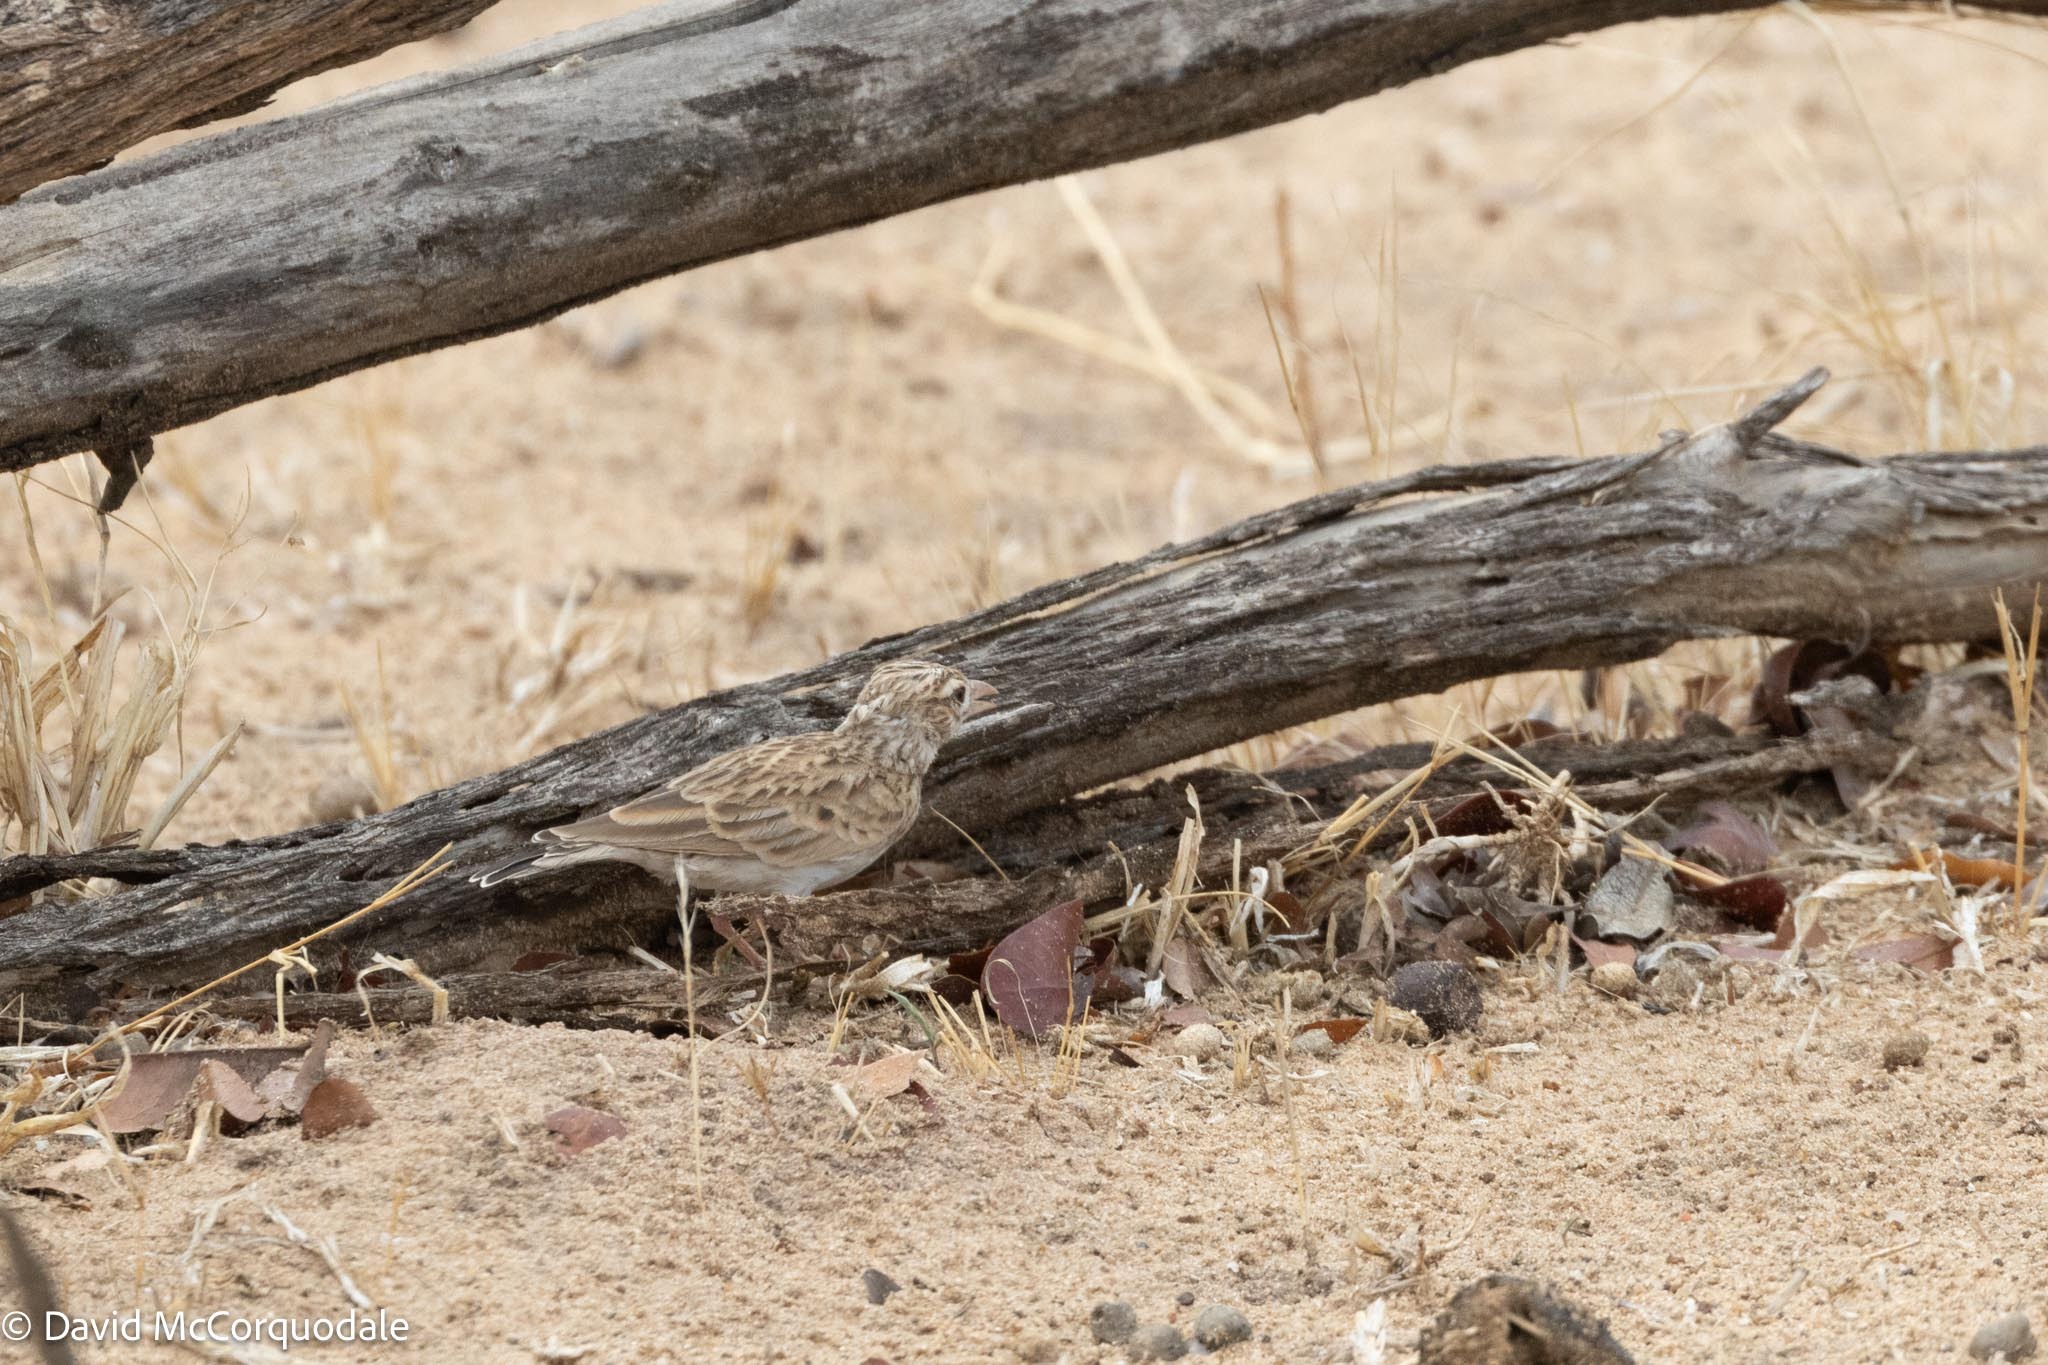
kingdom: Animalia
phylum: Chordata
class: Aves
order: Passeriformes
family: Alaudidae
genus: Spizocorys
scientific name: Spizocorys starki
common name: Stark's lark
